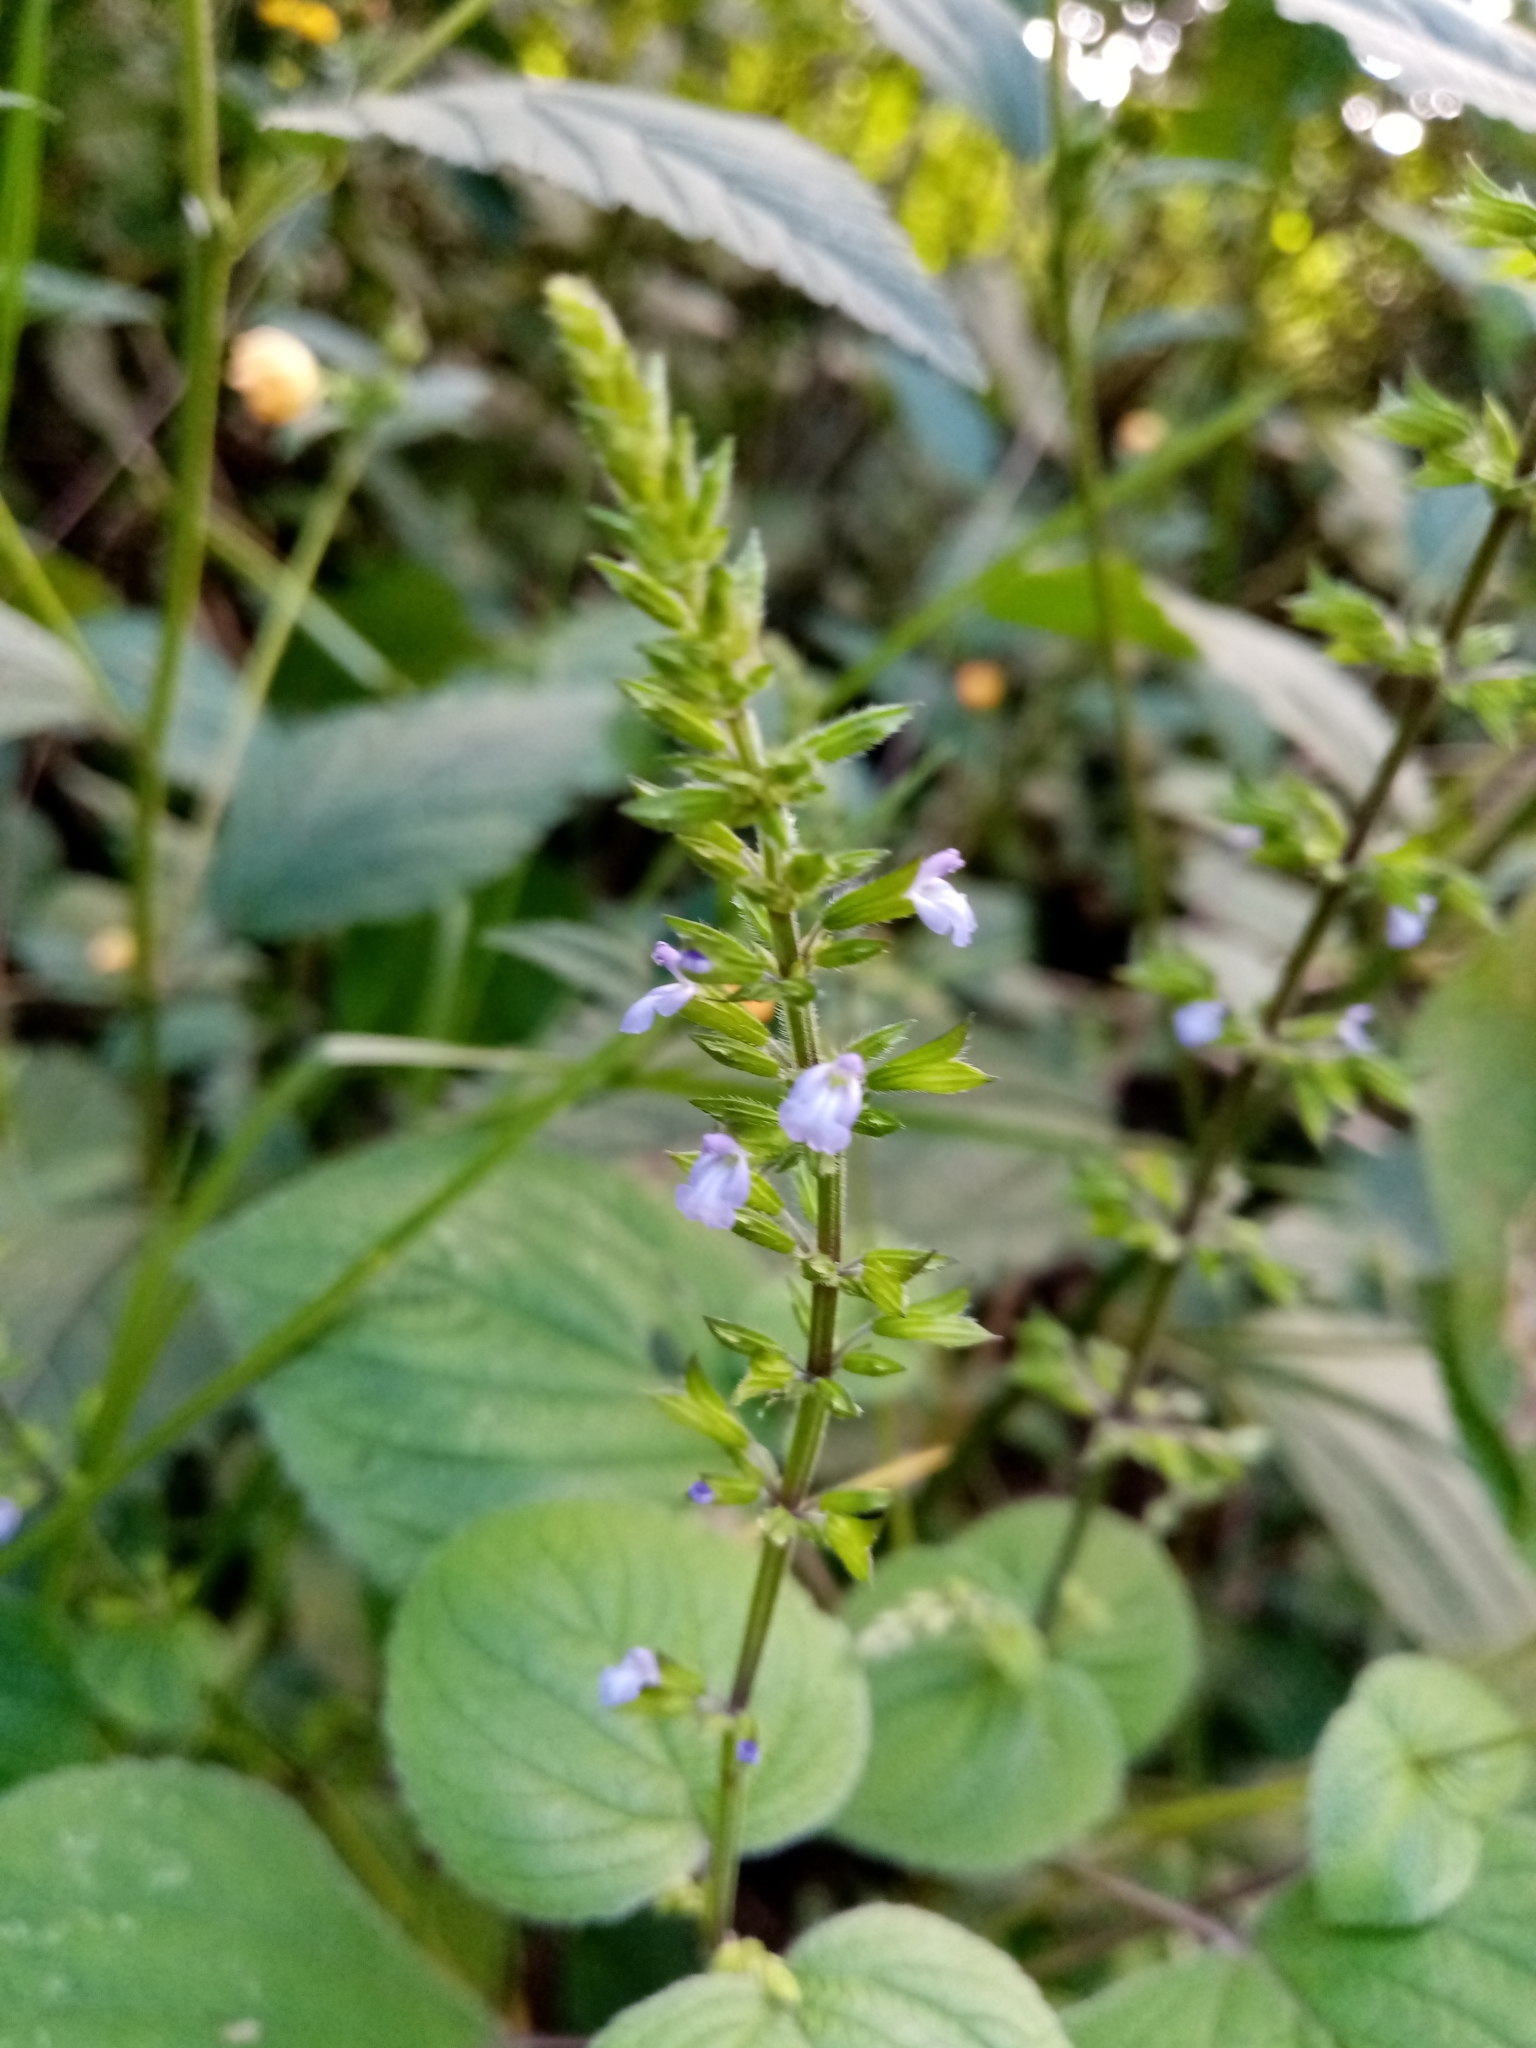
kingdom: Plantae
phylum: Tracheophyta
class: Magnoliopsida
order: Lamiales
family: Lamiaceae
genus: Salvia
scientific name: Salvia tiliifolia
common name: Lindenleaf sage
